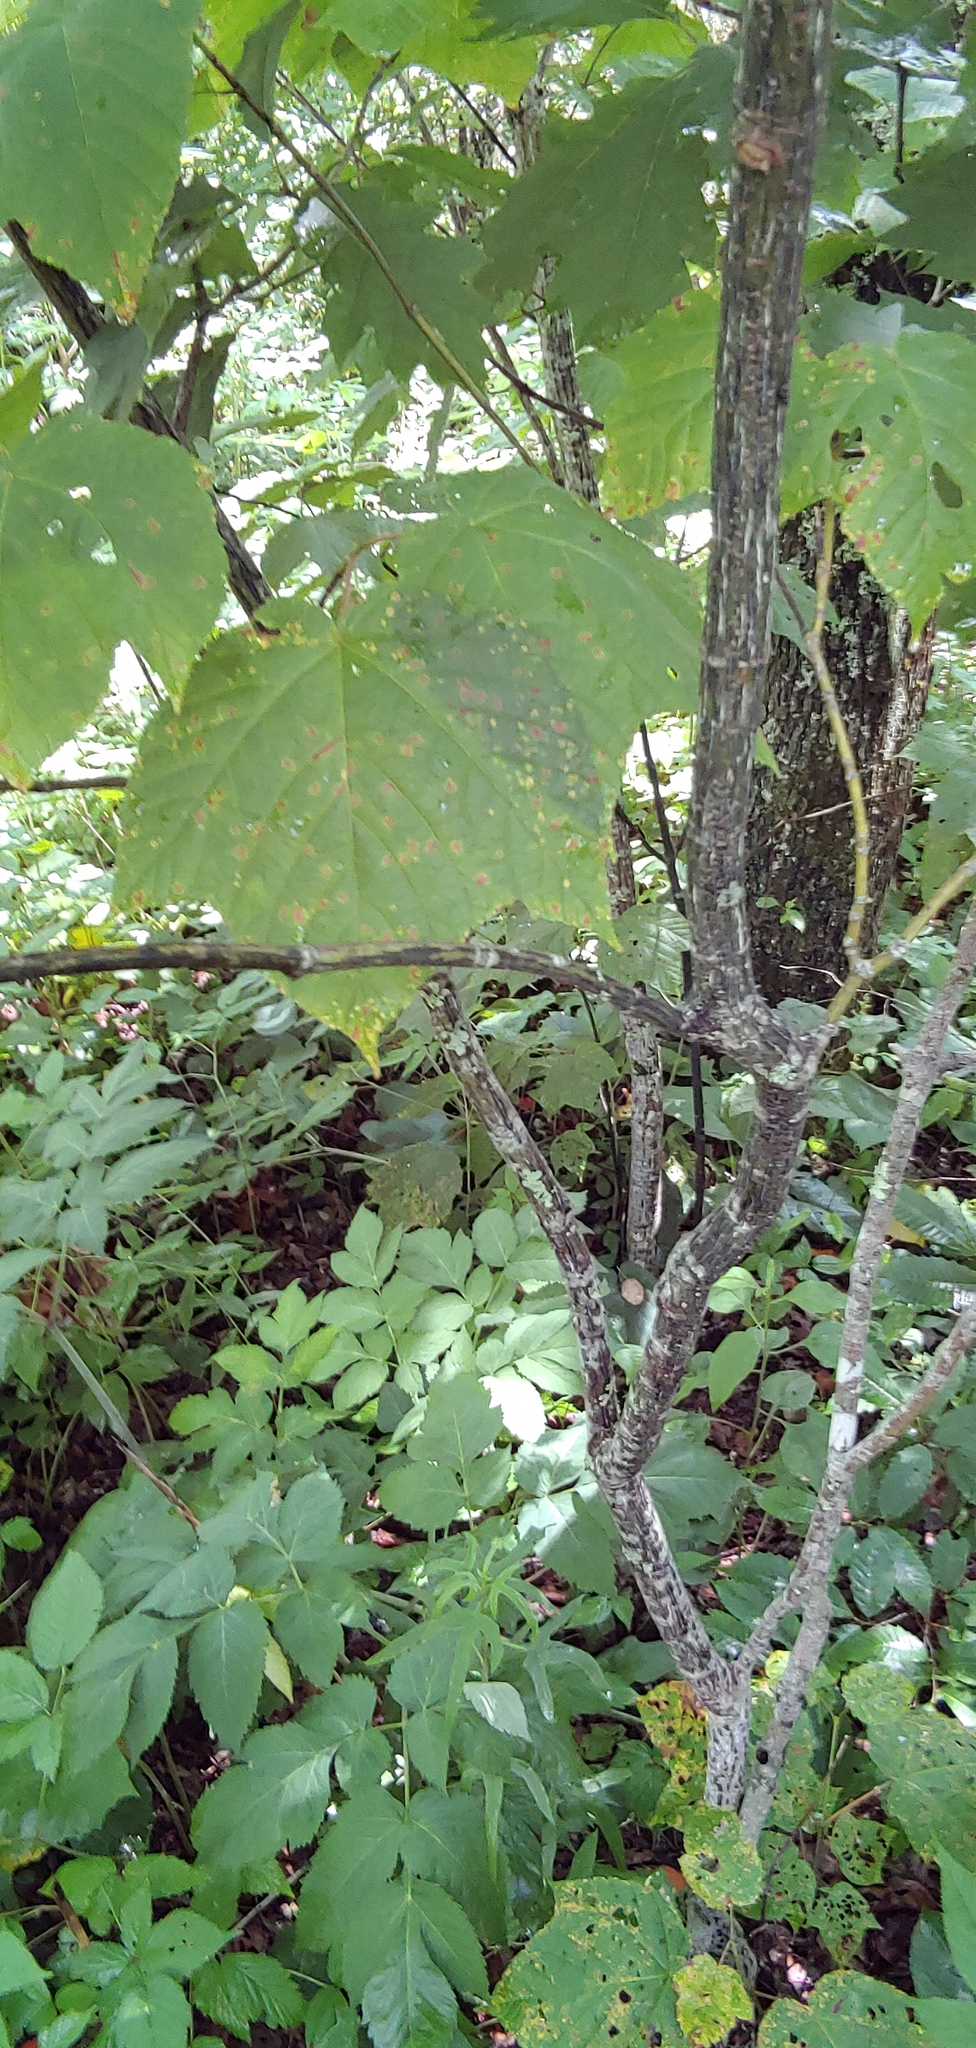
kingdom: Plantae
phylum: Tracheophyta
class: Magnoliopsida
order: Sapindales
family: Sapindaceae
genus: Acer
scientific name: Acer pensylvanicum
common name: Moosewood
